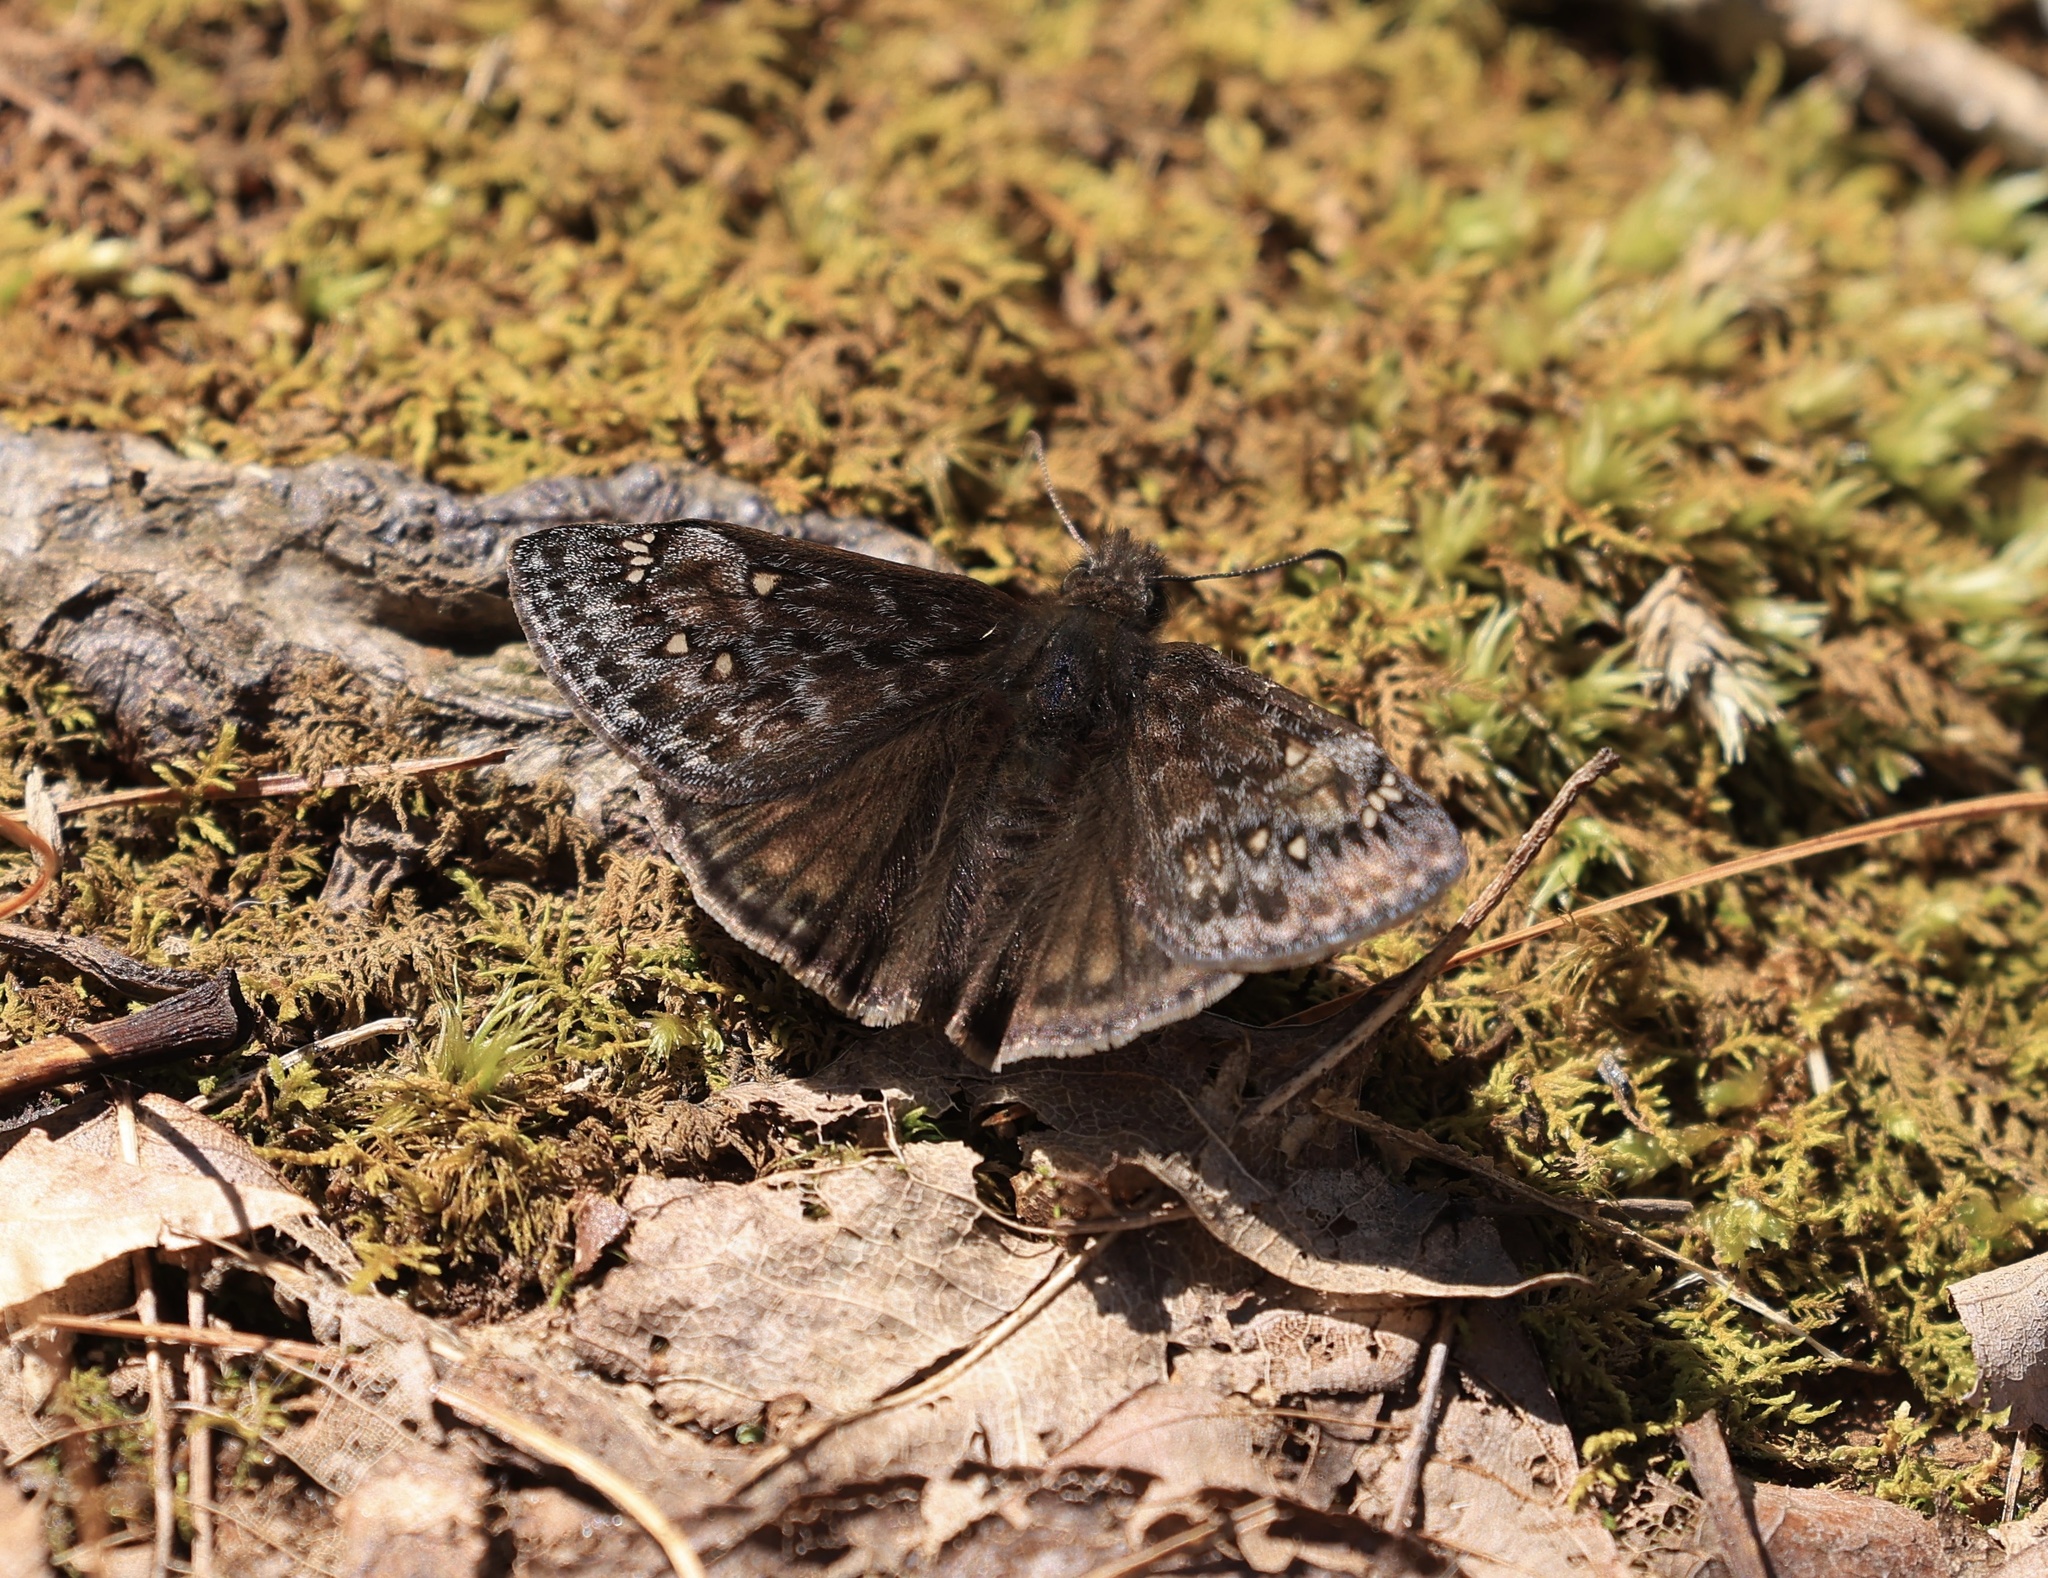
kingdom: Animalia
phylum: Arthropoda
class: Insecta
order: Lepidoptera
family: Hesperiidae
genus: Erynnis
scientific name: Erynnis juvenalis
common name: Juvenal's duskywing
